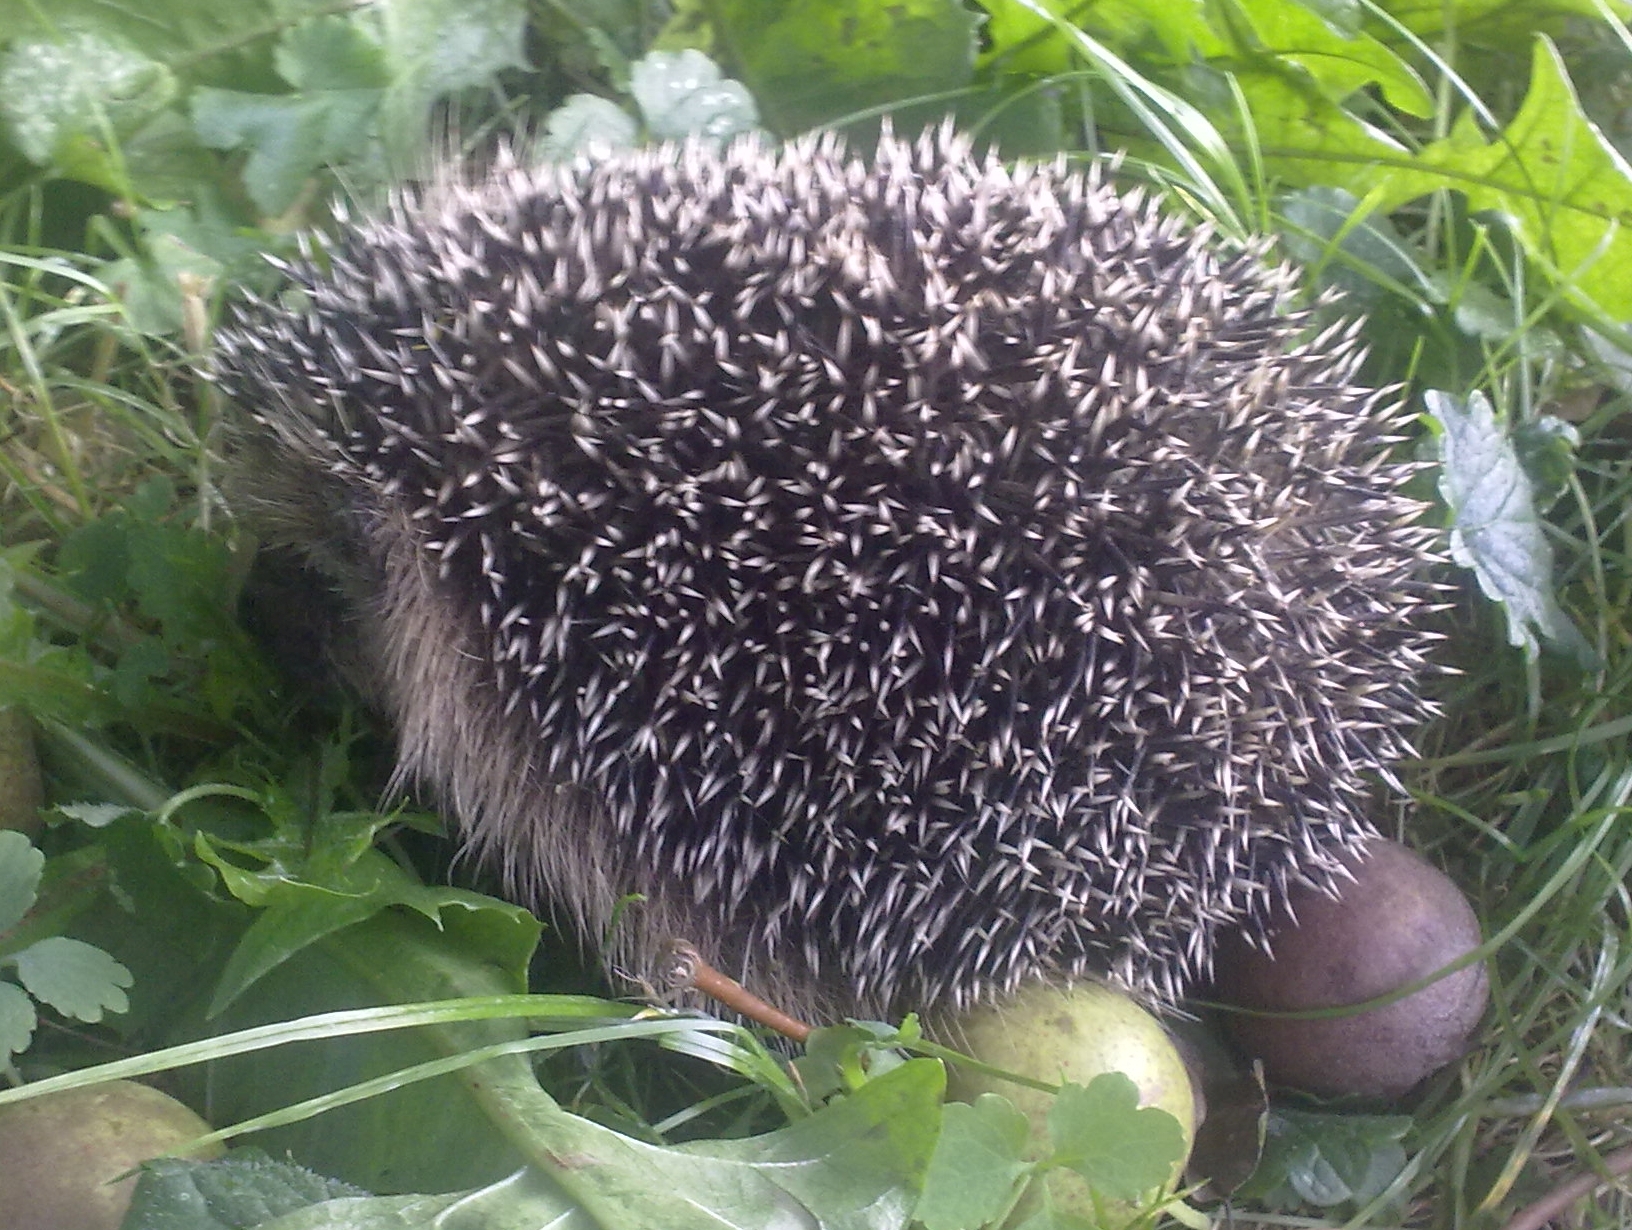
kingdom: Animalia
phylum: Chordata
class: Mammalia
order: Erinaceomorpha
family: Erinaceidae
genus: Erinaceus
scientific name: Erinaceus
